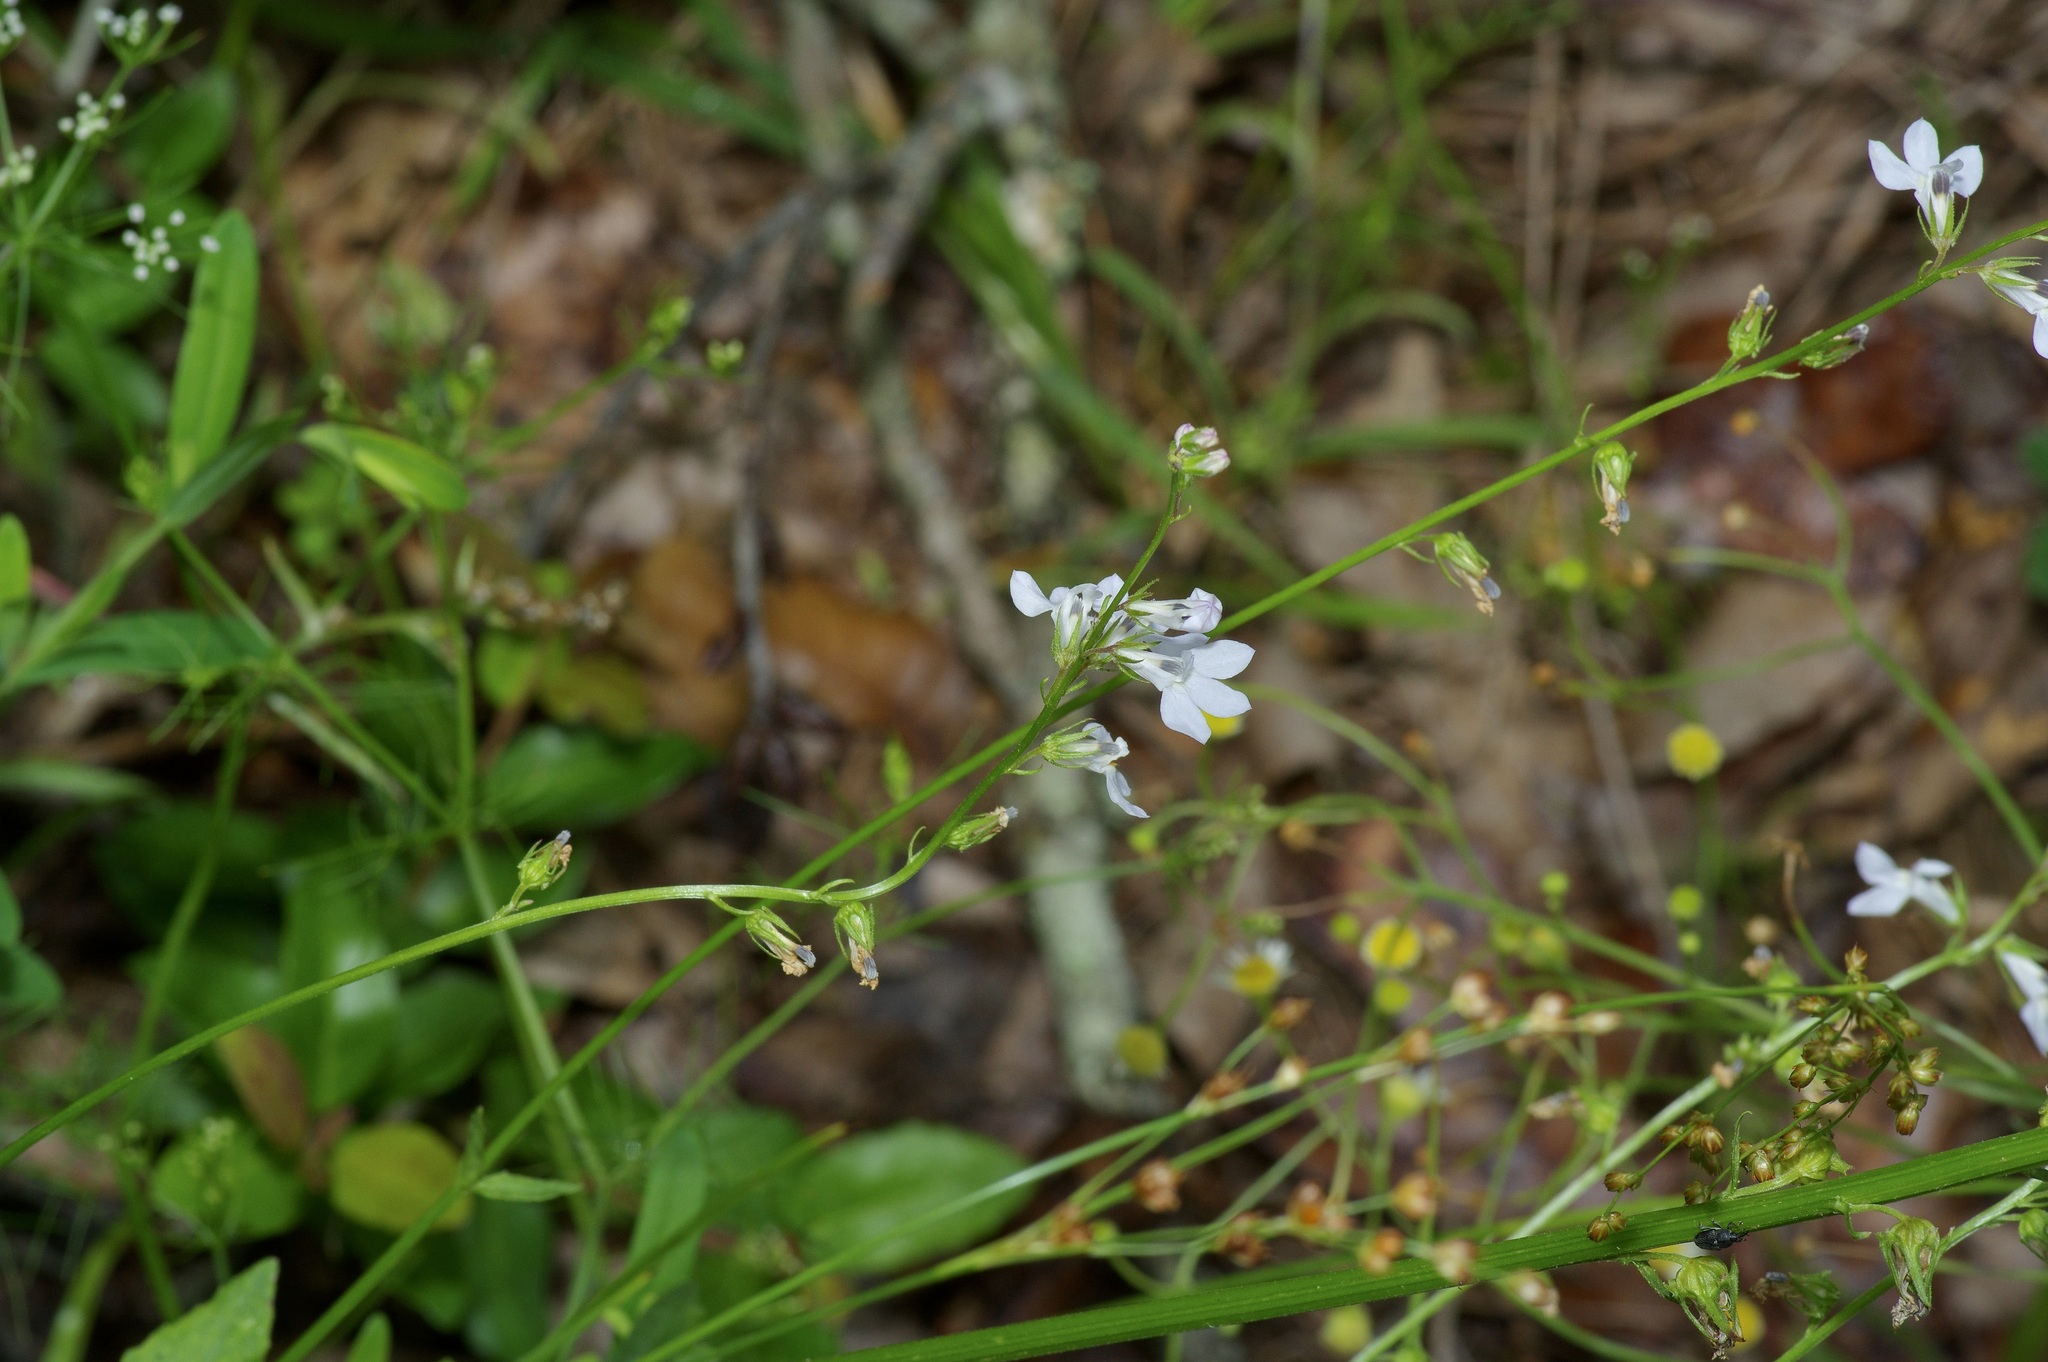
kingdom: Plantae
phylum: Tracheophyta
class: Magnoliopsida
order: Asterales
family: Campanulaceae
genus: Lobelia
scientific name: Lobelia appendiculata
